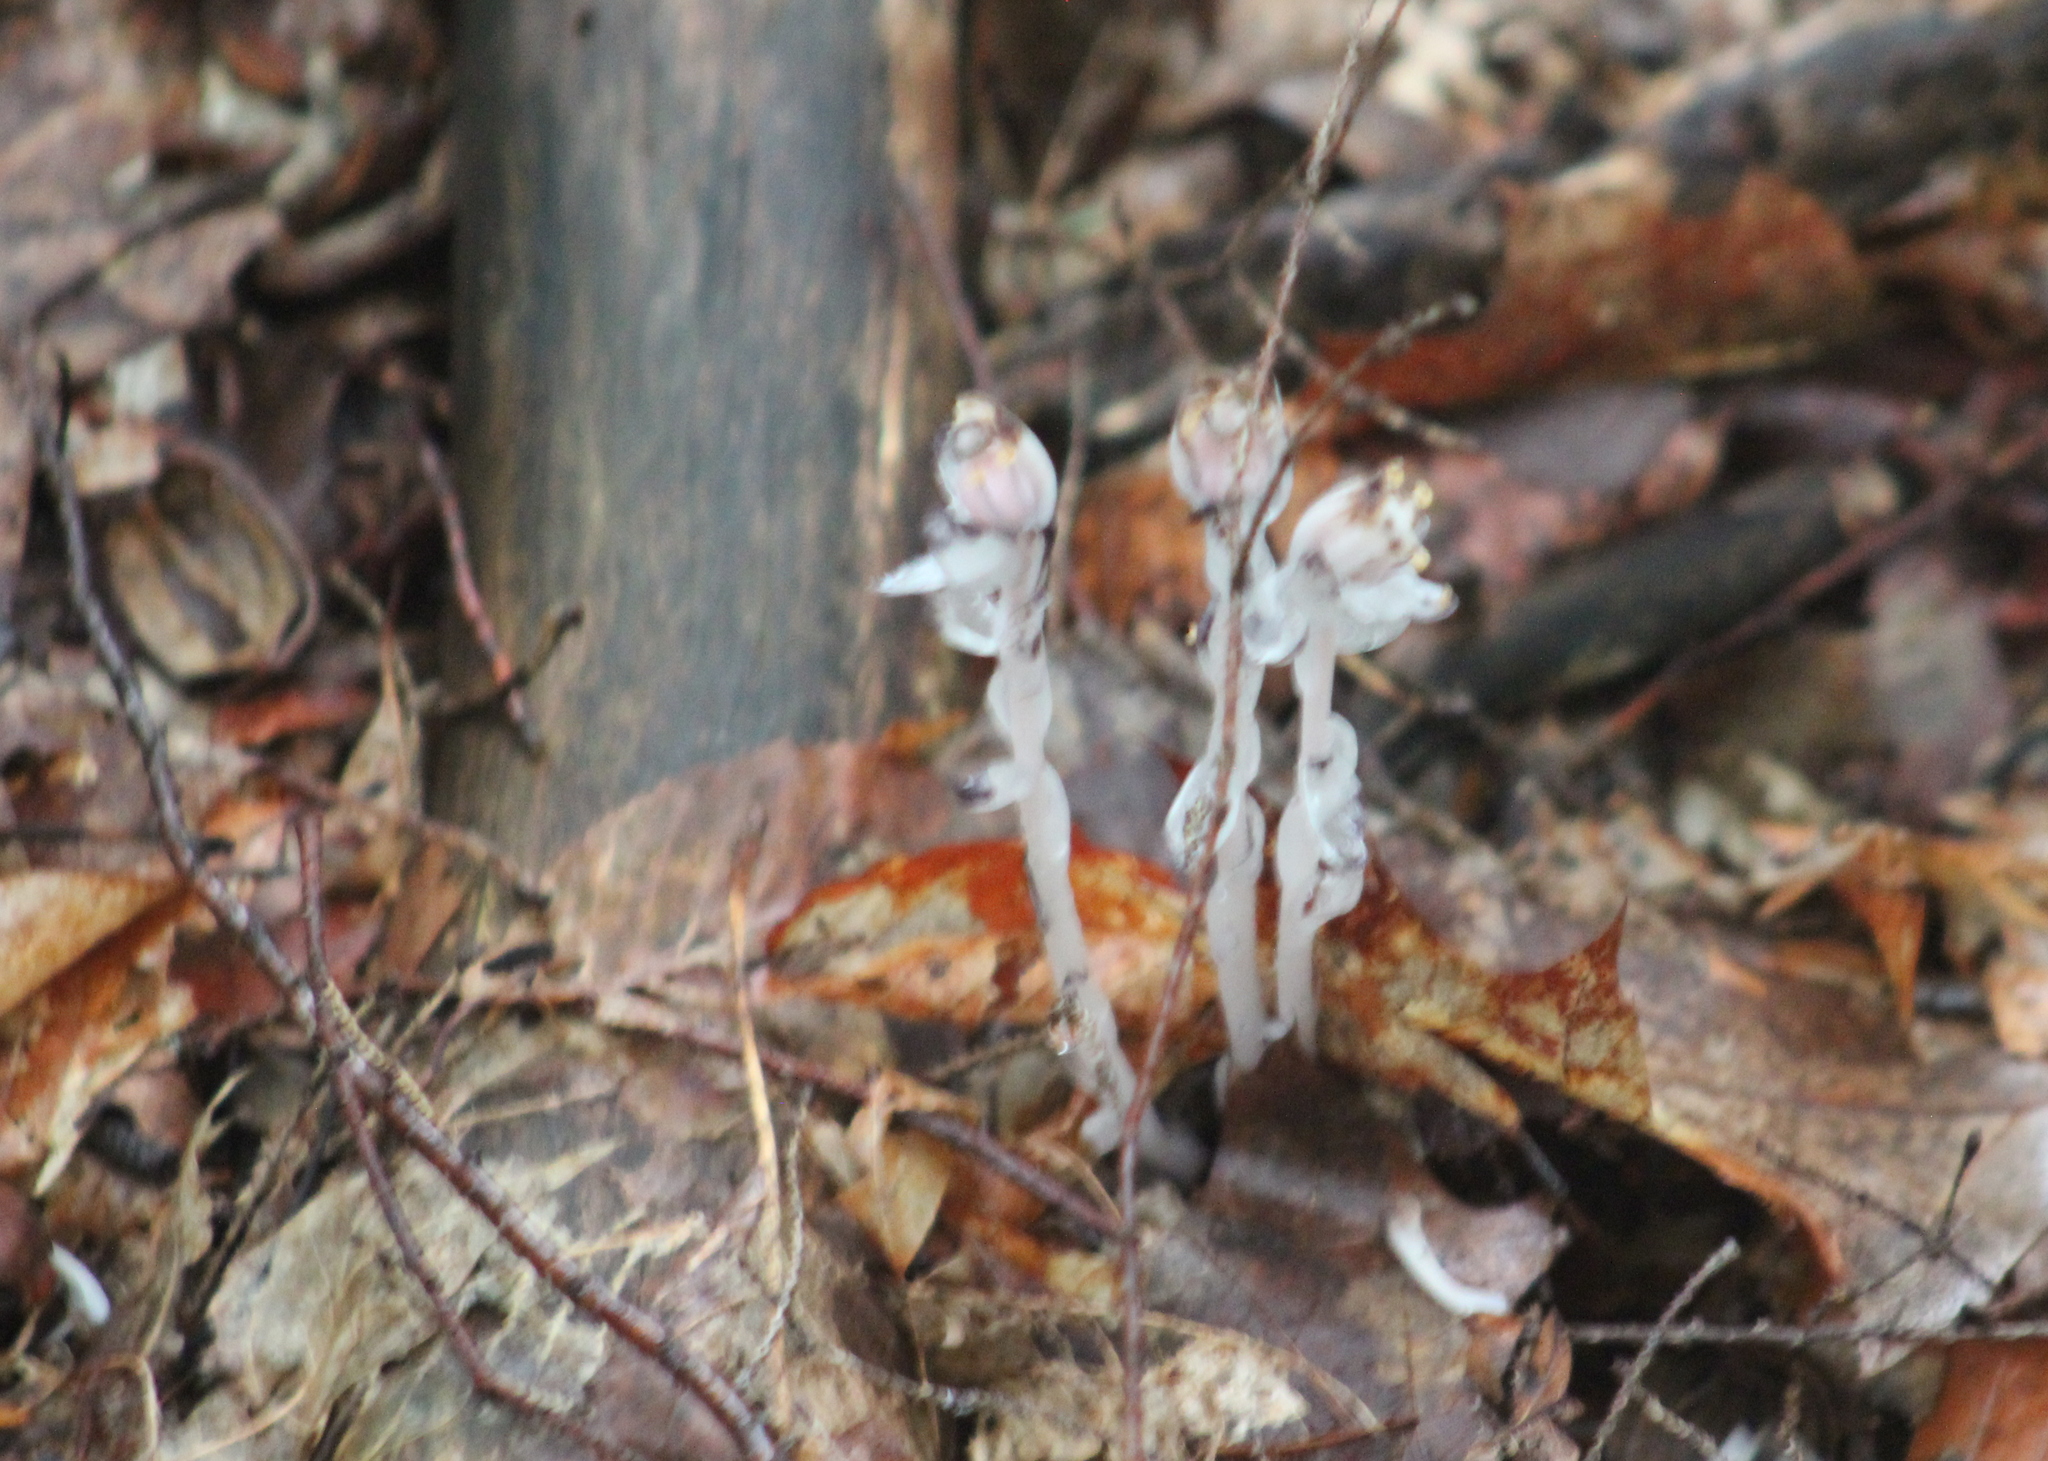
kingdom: Plantae
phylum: Tracheophyta
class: Magnoliopsida
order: Ericales
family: Ericaceae
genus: Monotropa
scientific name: Monotropa uniflora
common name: Convulsion root
